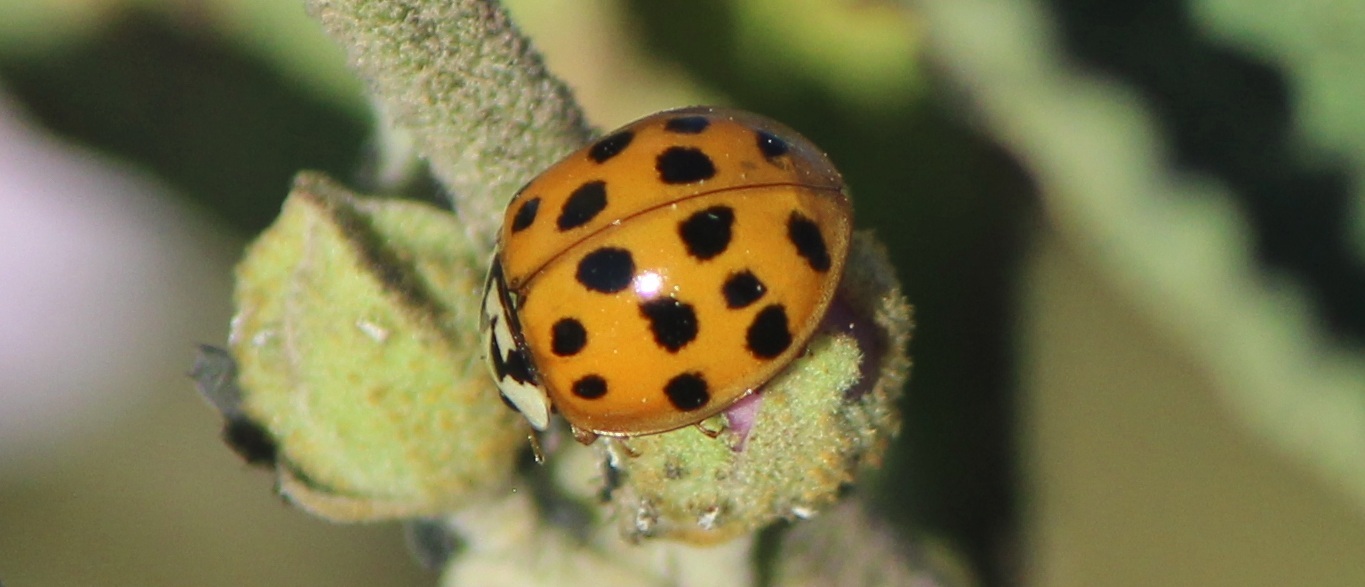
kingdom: Animalia
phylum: Arthropoda
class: Insecta
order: Coleoptera
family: Coccinellidae
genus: Harmonia
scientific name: Harmonia axyridis
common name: Harlequin ladybird
